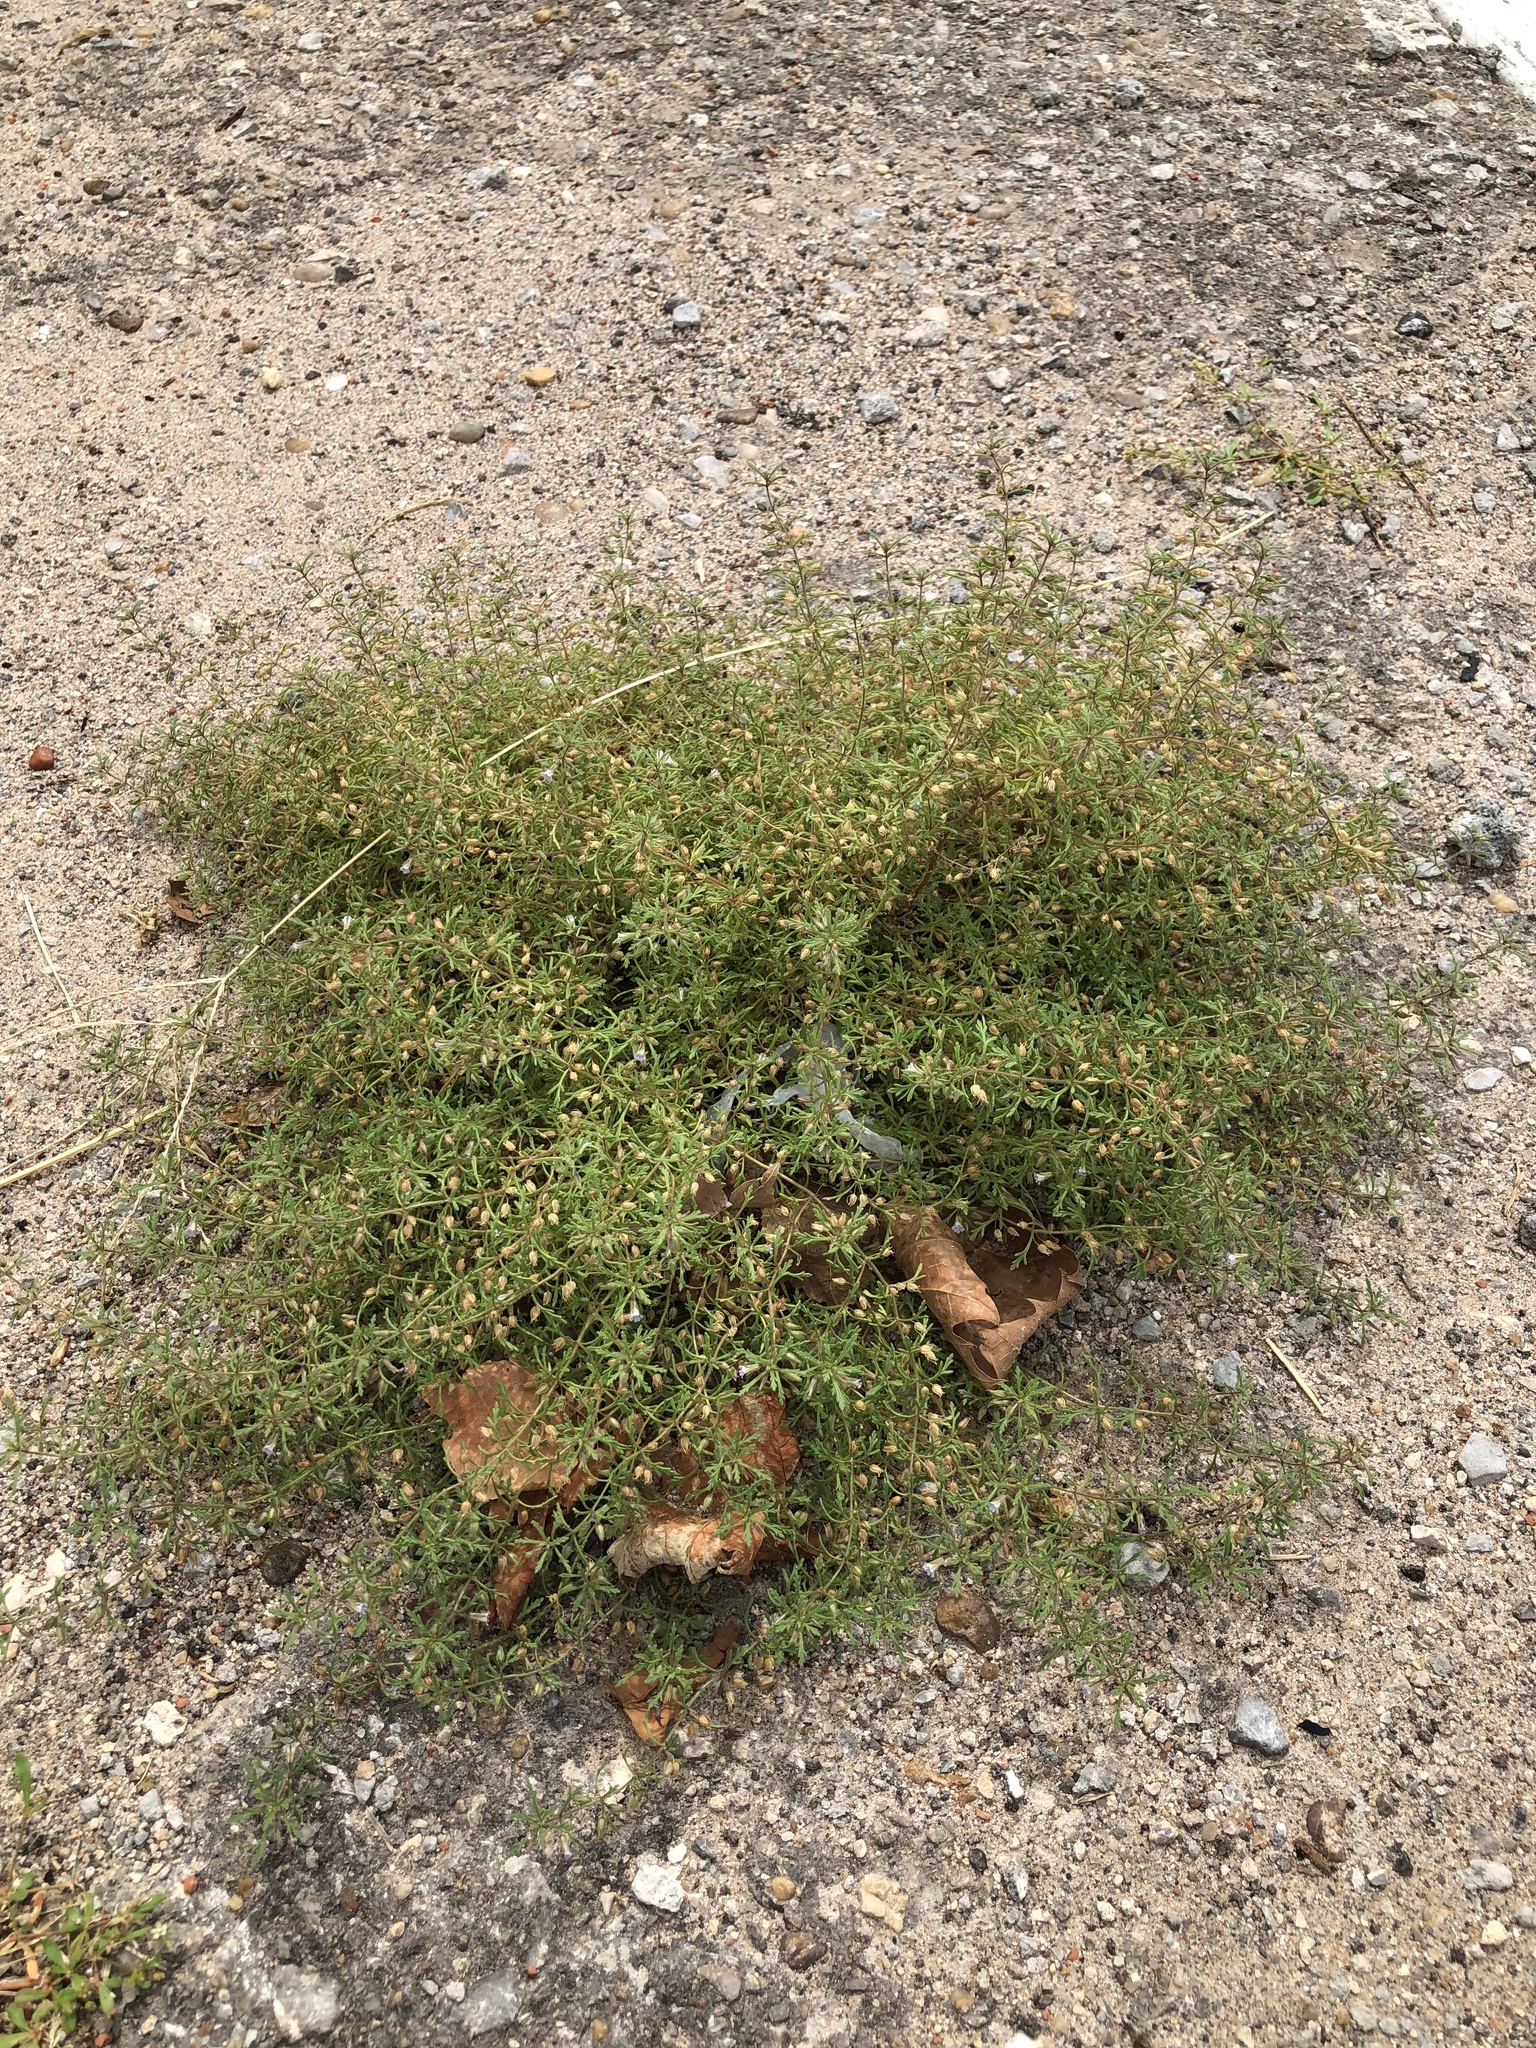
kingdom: Plantae
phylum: Tracheophyta
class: Magnoliopsida
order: Lamiales
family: Plantaginaceae
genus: Leucospora
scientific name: Leucospora multifida
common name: Narrow-leaf paleseed
